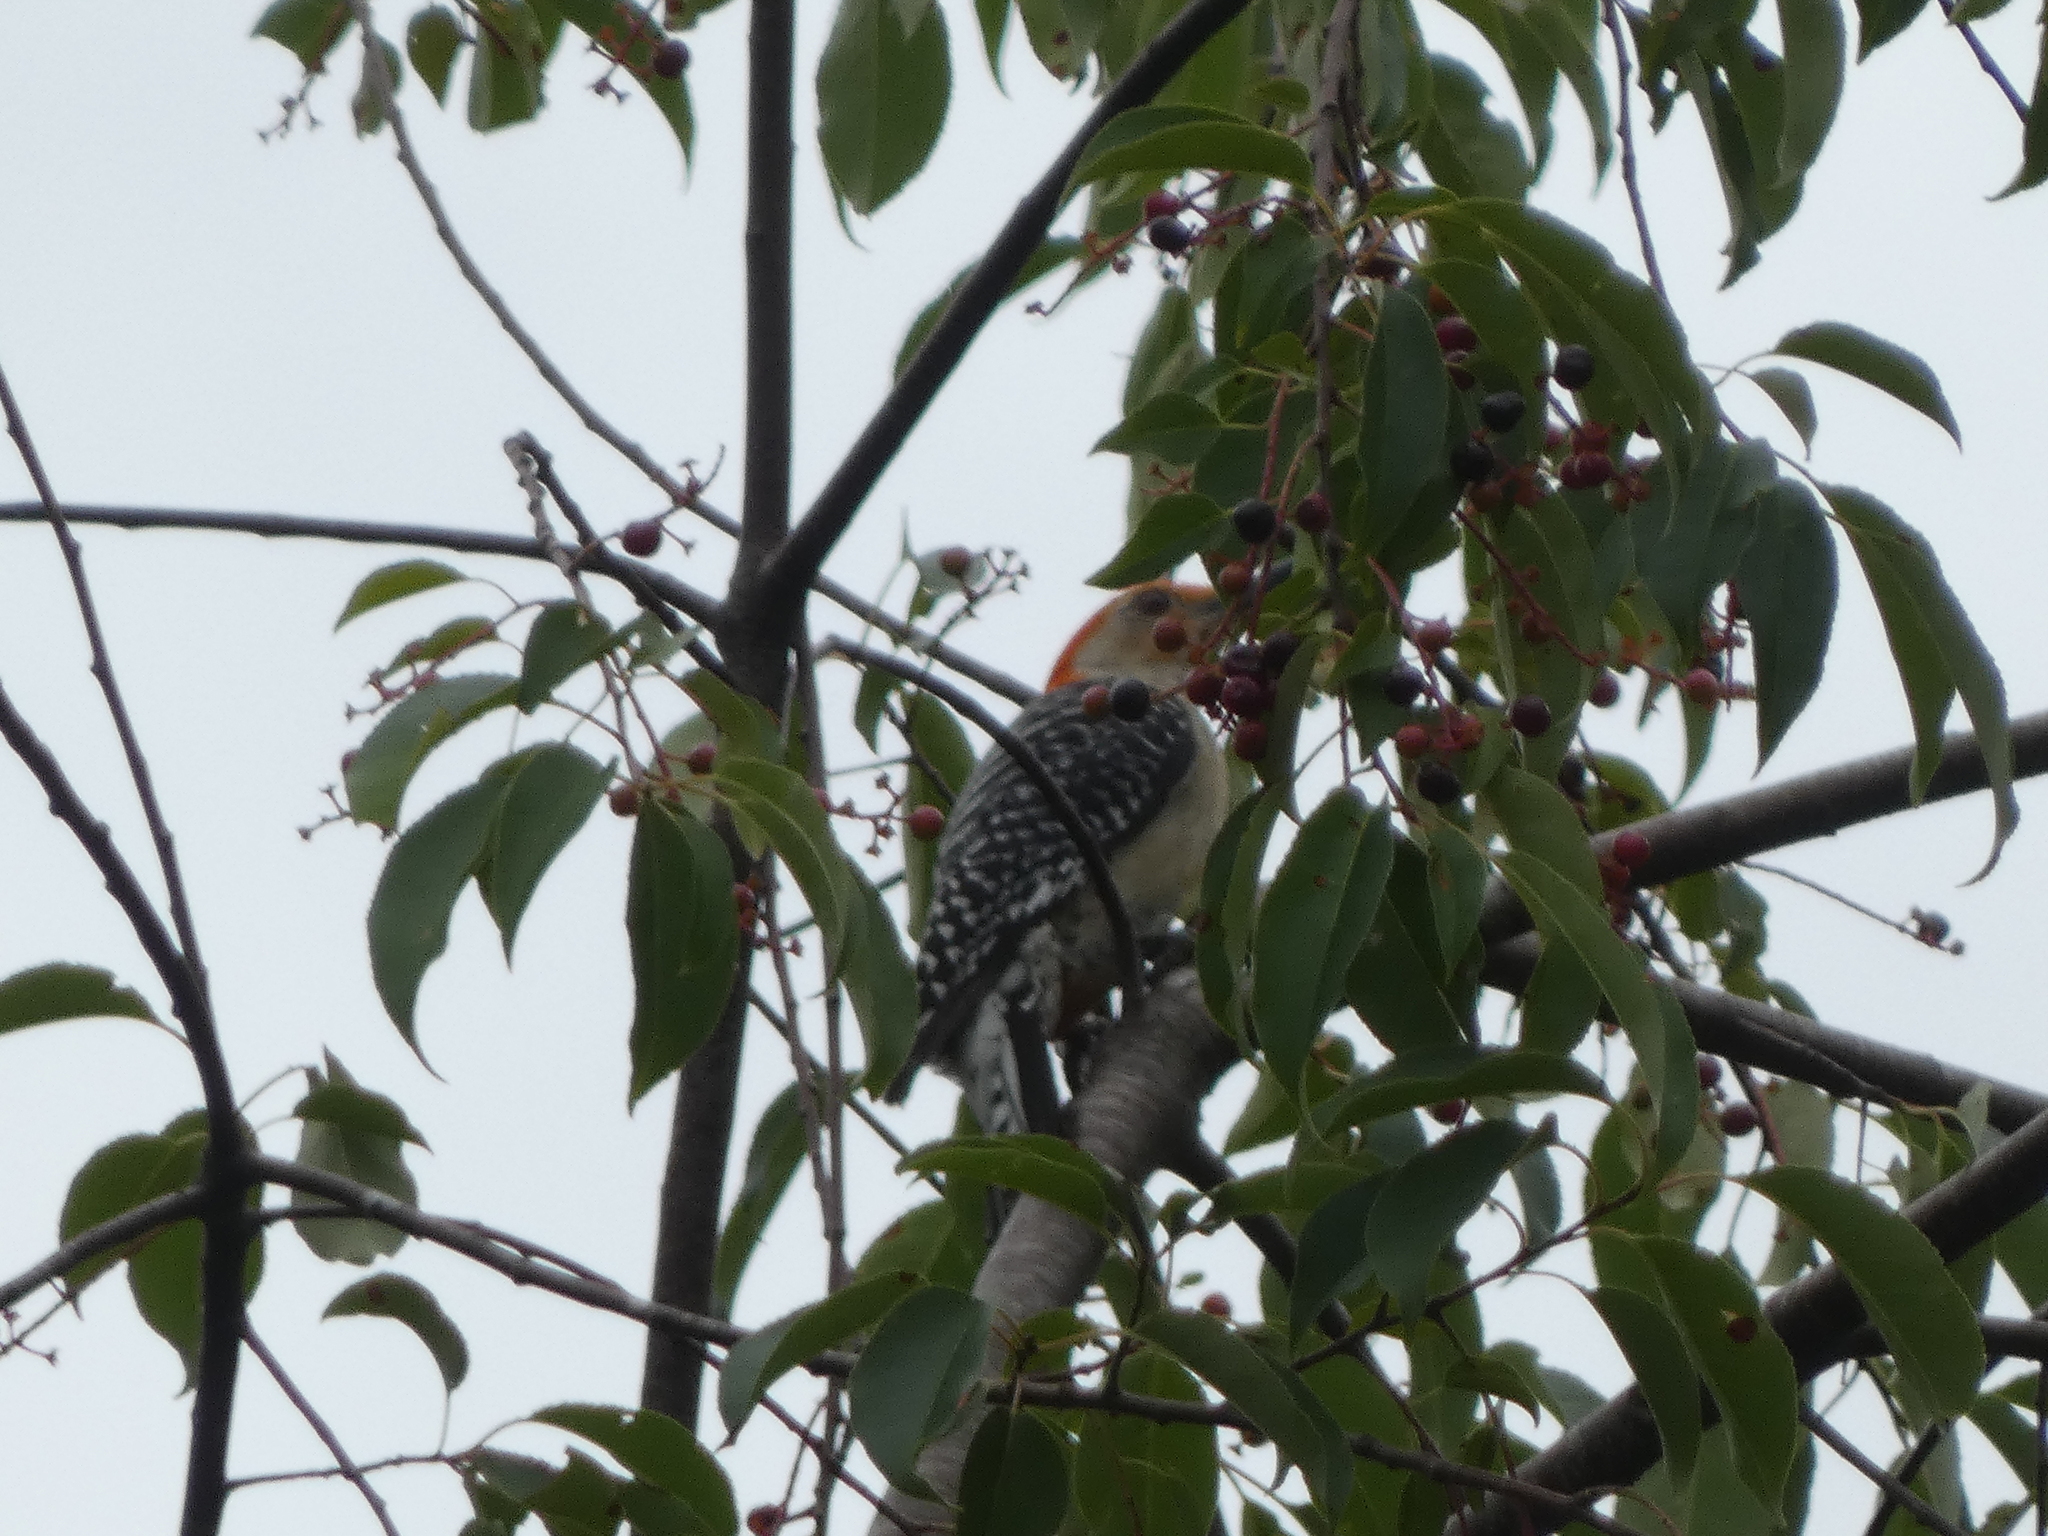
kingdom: Animalia
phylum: Chordata
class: Aves
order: Piciformes
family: Picidae
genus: Melanerpes
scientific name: Melanerpes carolinus
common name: Red-bellied woodpecker
